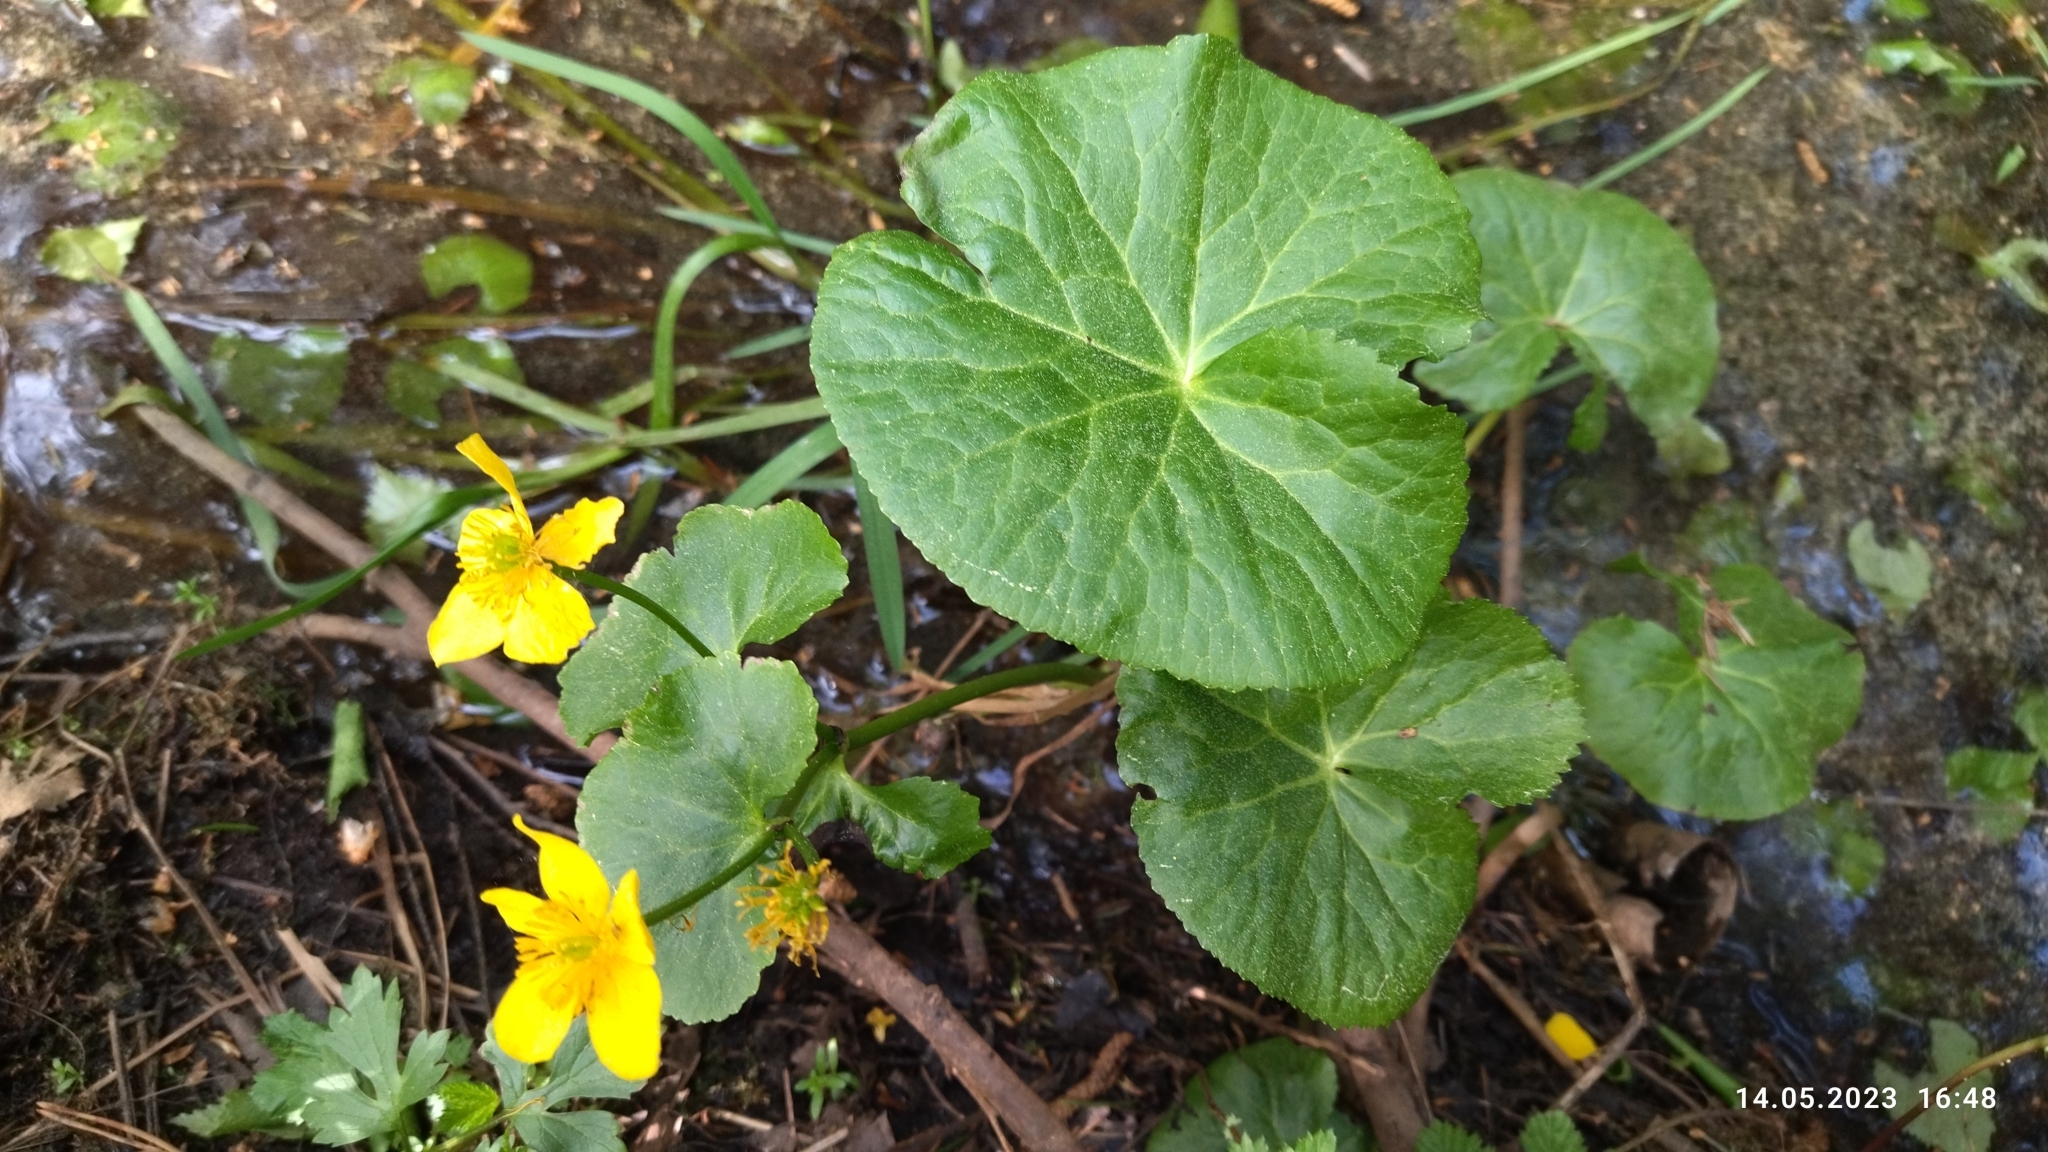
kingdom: Plantae
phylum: Tracheophyta
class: Magnoliopsida
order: Ranunculales
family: Ranunculaceae
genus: Caltha
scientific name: Caltha palustris
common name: Marsh marigold
